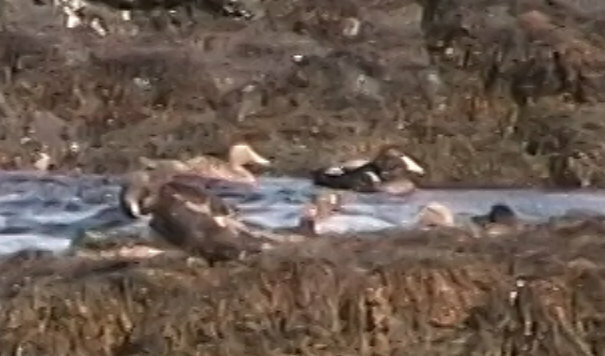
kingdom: Animalia
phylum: Chordata
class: Aves
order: Anseriformes
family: Anatidae
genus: Somateria
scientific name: Somateria mollissima
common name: Common eider
